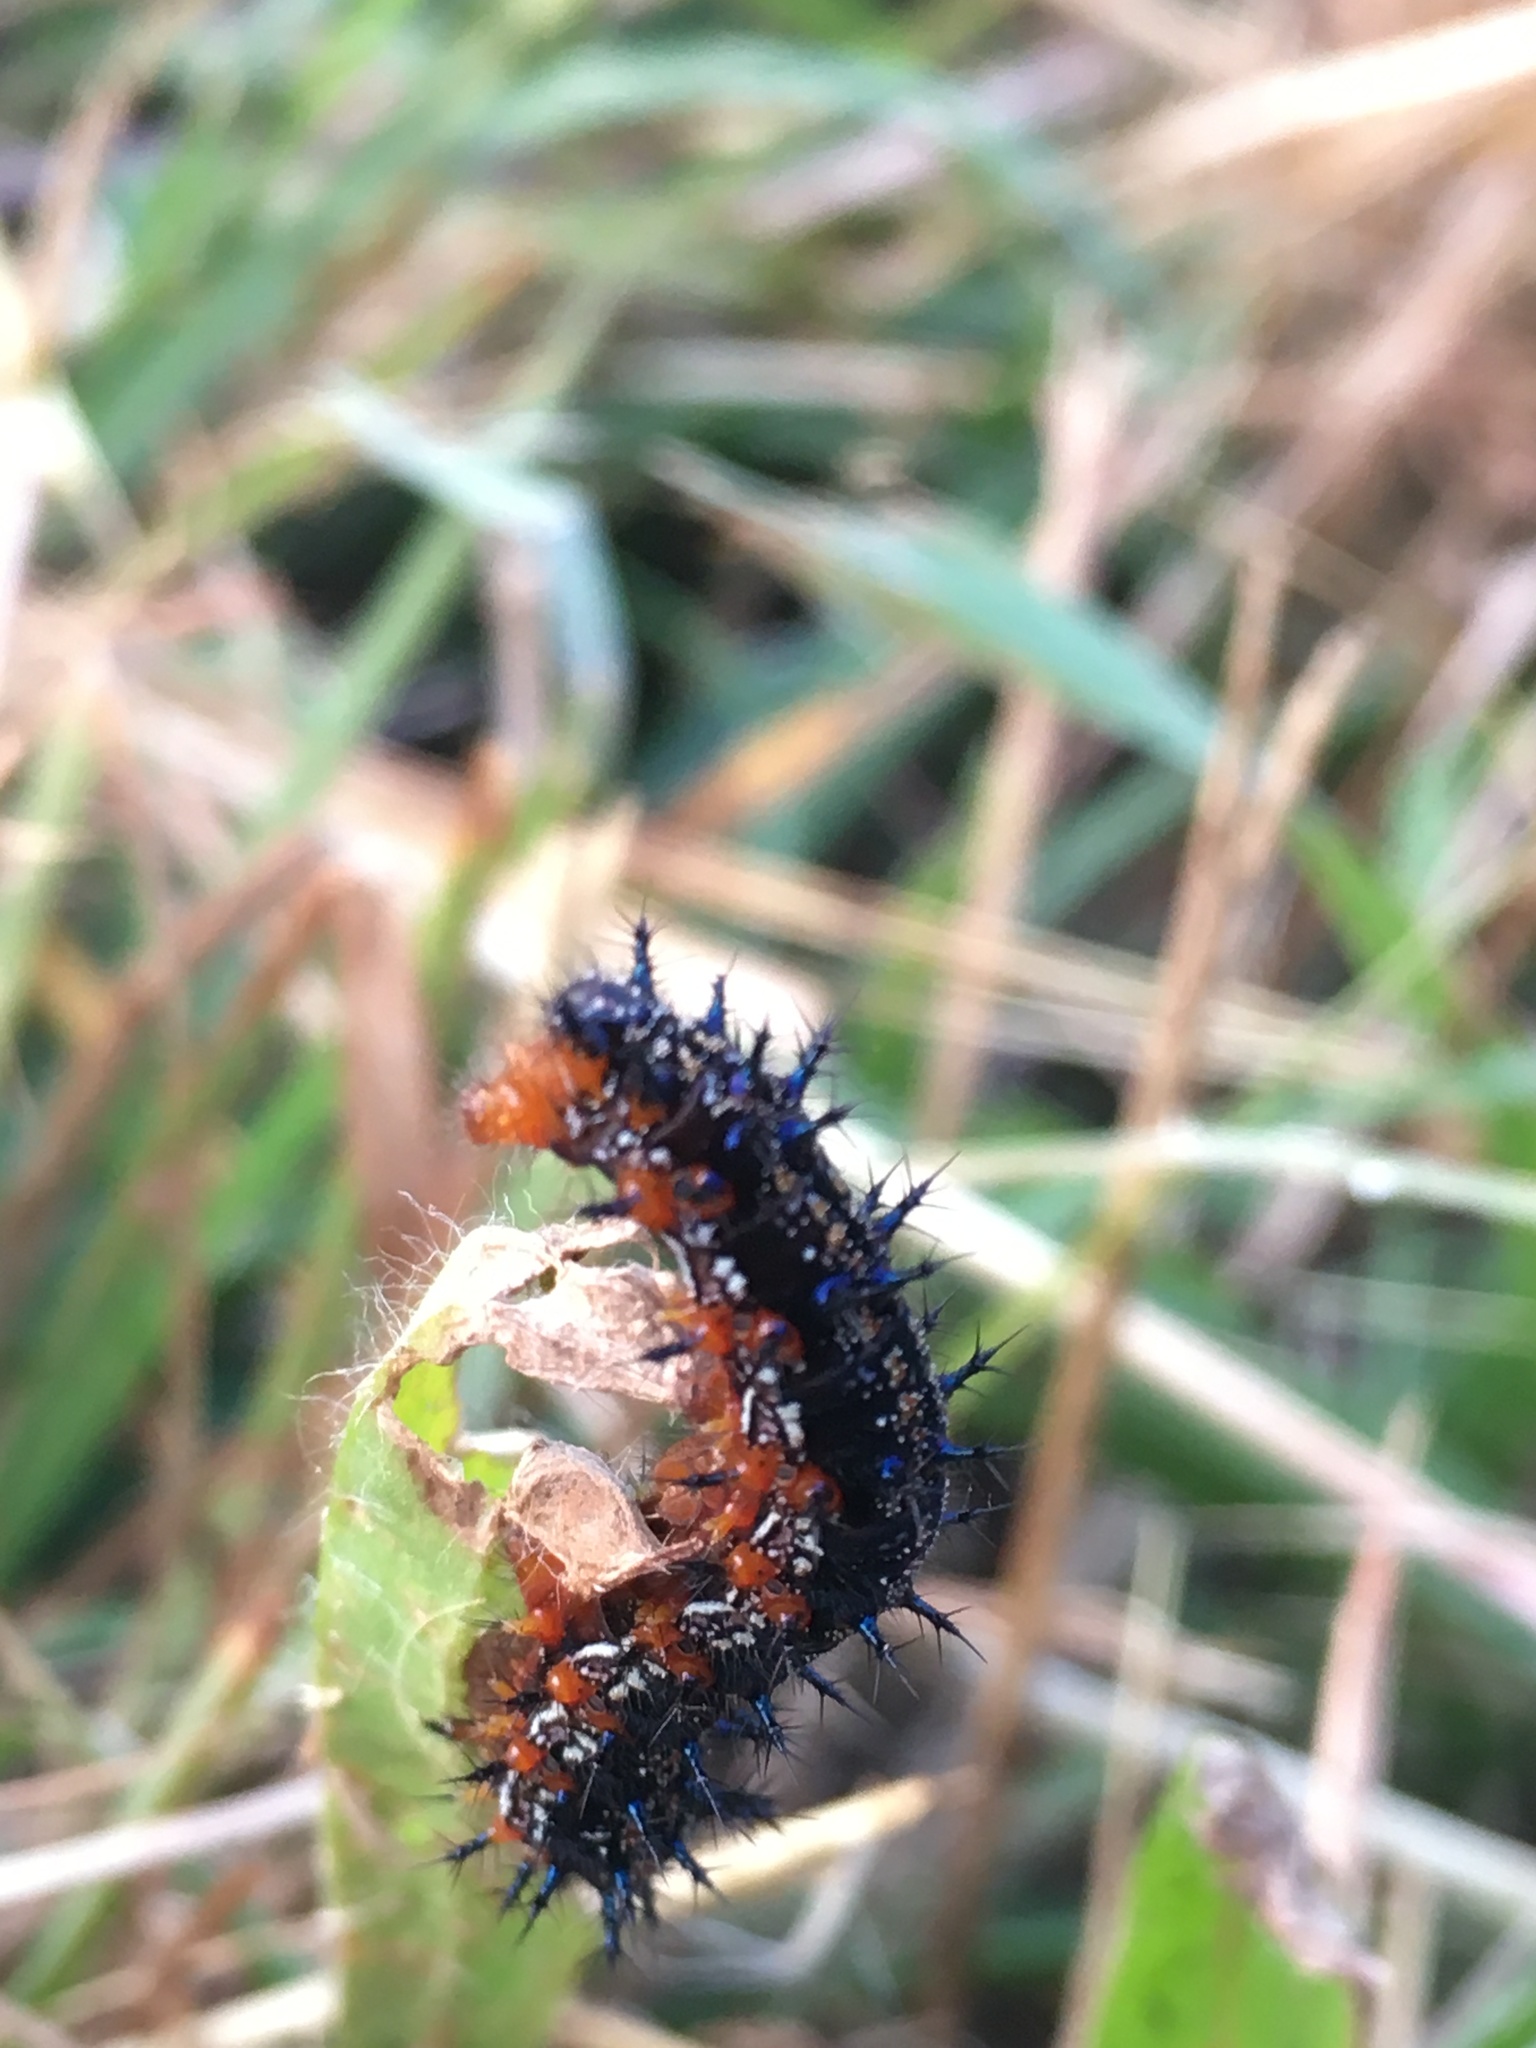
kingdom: Animalia
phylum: Arthropoda
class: Insecta
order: Lepidoptera
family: Nymphalidae
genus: Junonia
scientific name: Junonia coenia
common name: Common buckeye
